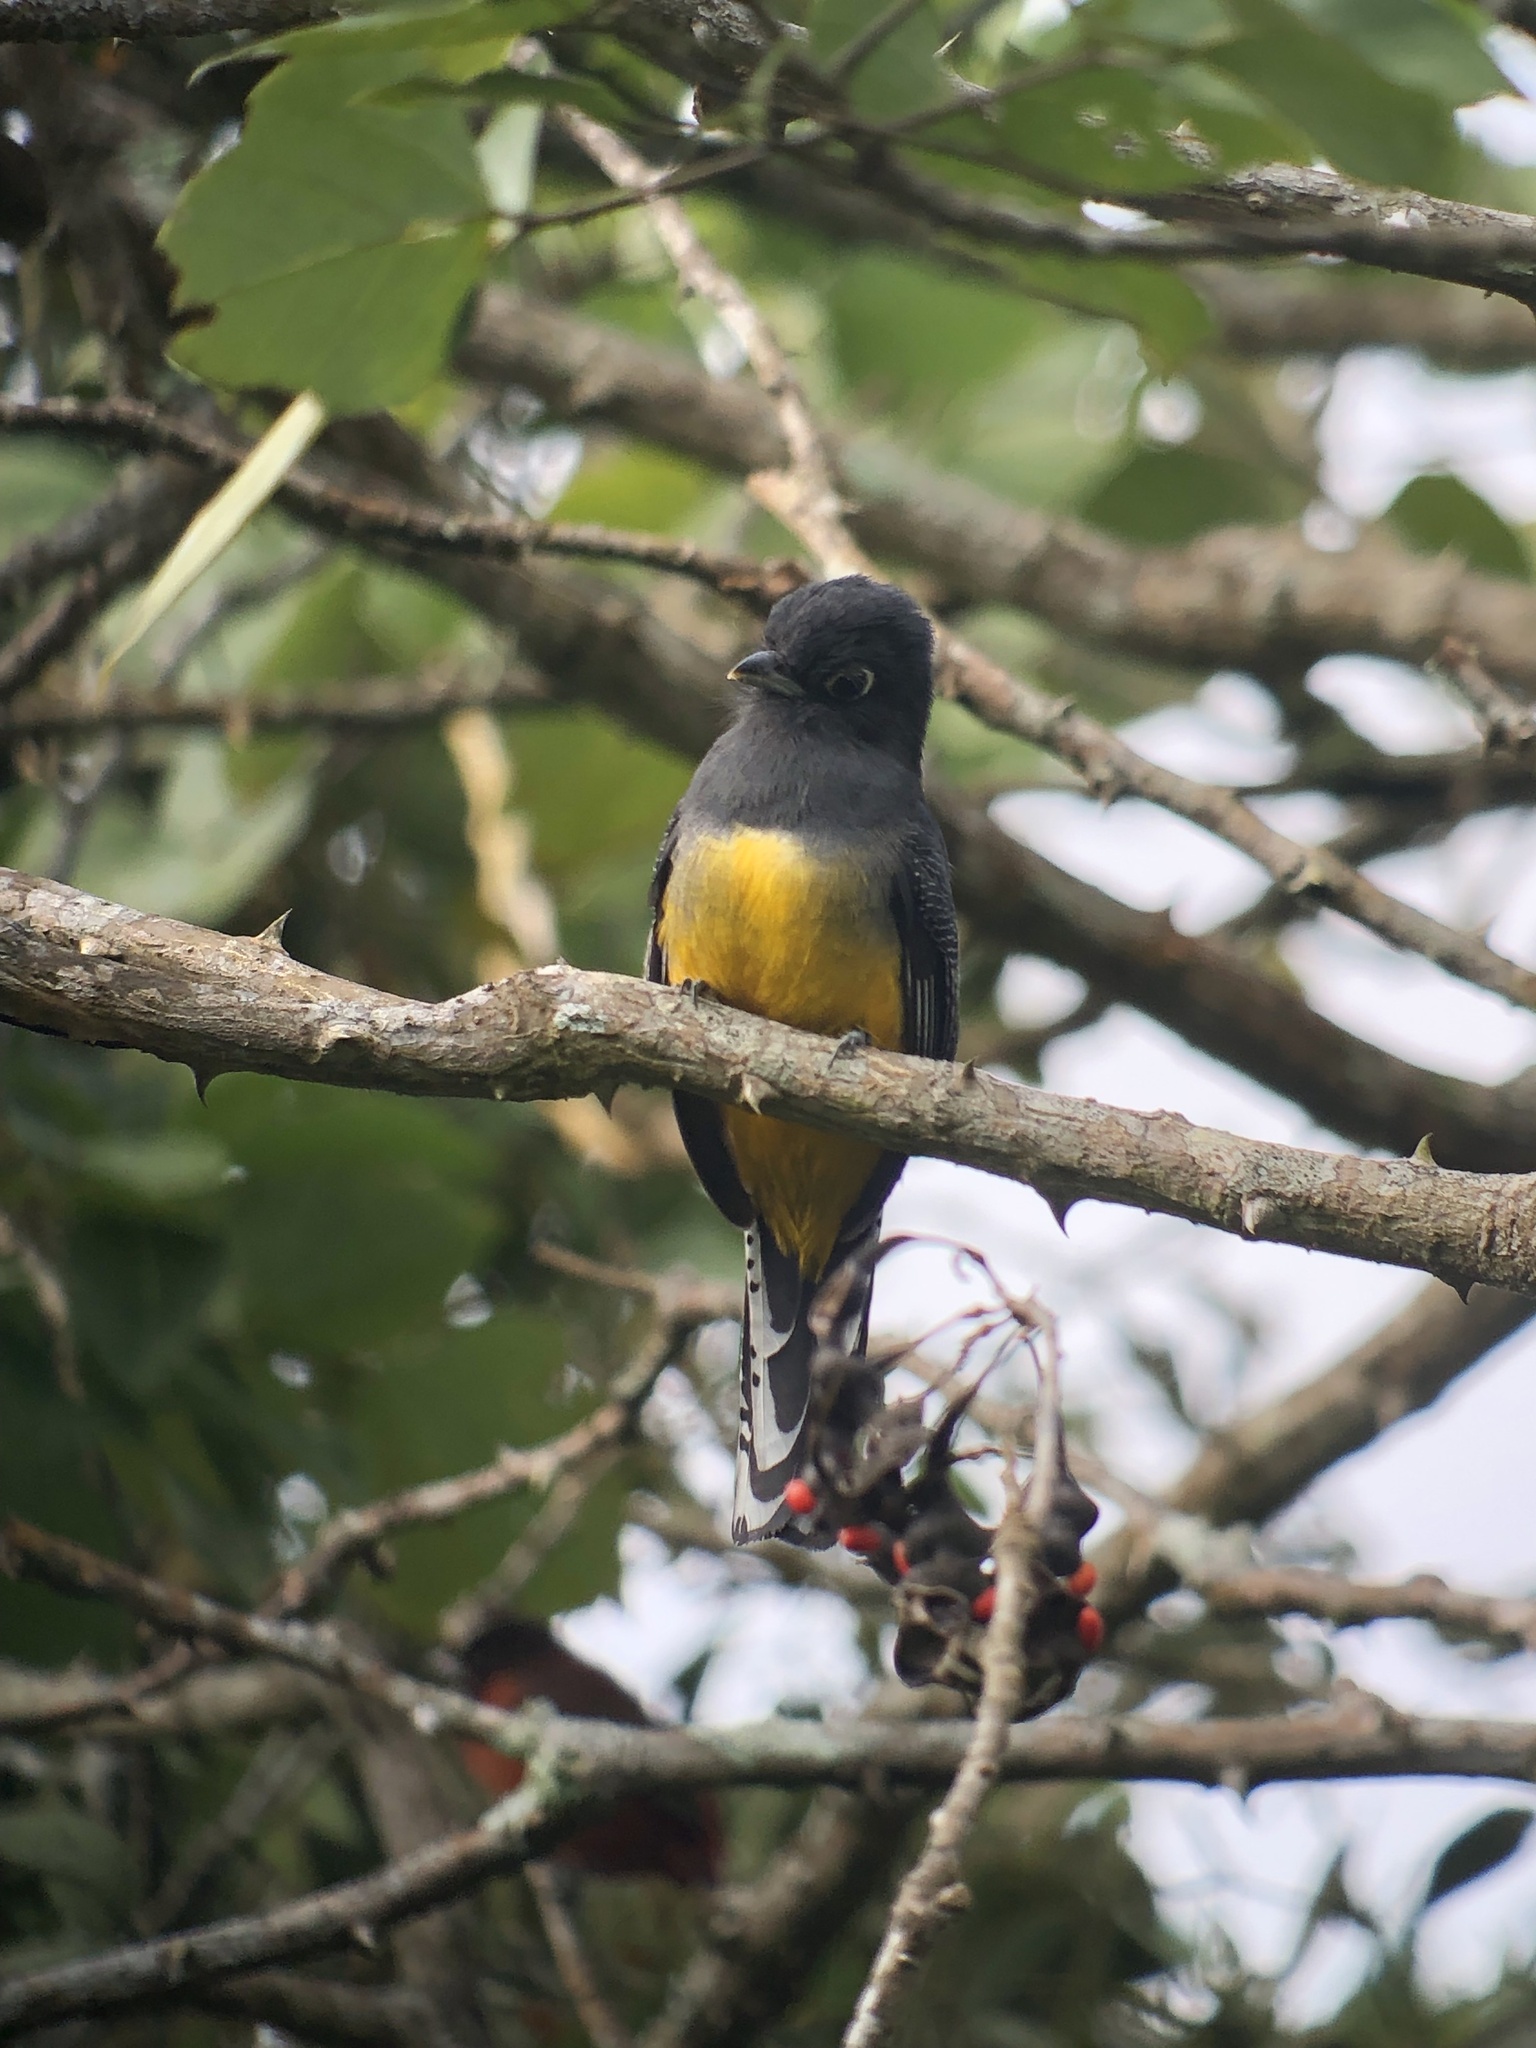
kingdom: Animalia
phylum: Chordata
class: Aves
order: Trogoniformes
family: Trogonidae
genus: Trogon
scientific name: Trogon caligatus
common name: Gartered trogon
